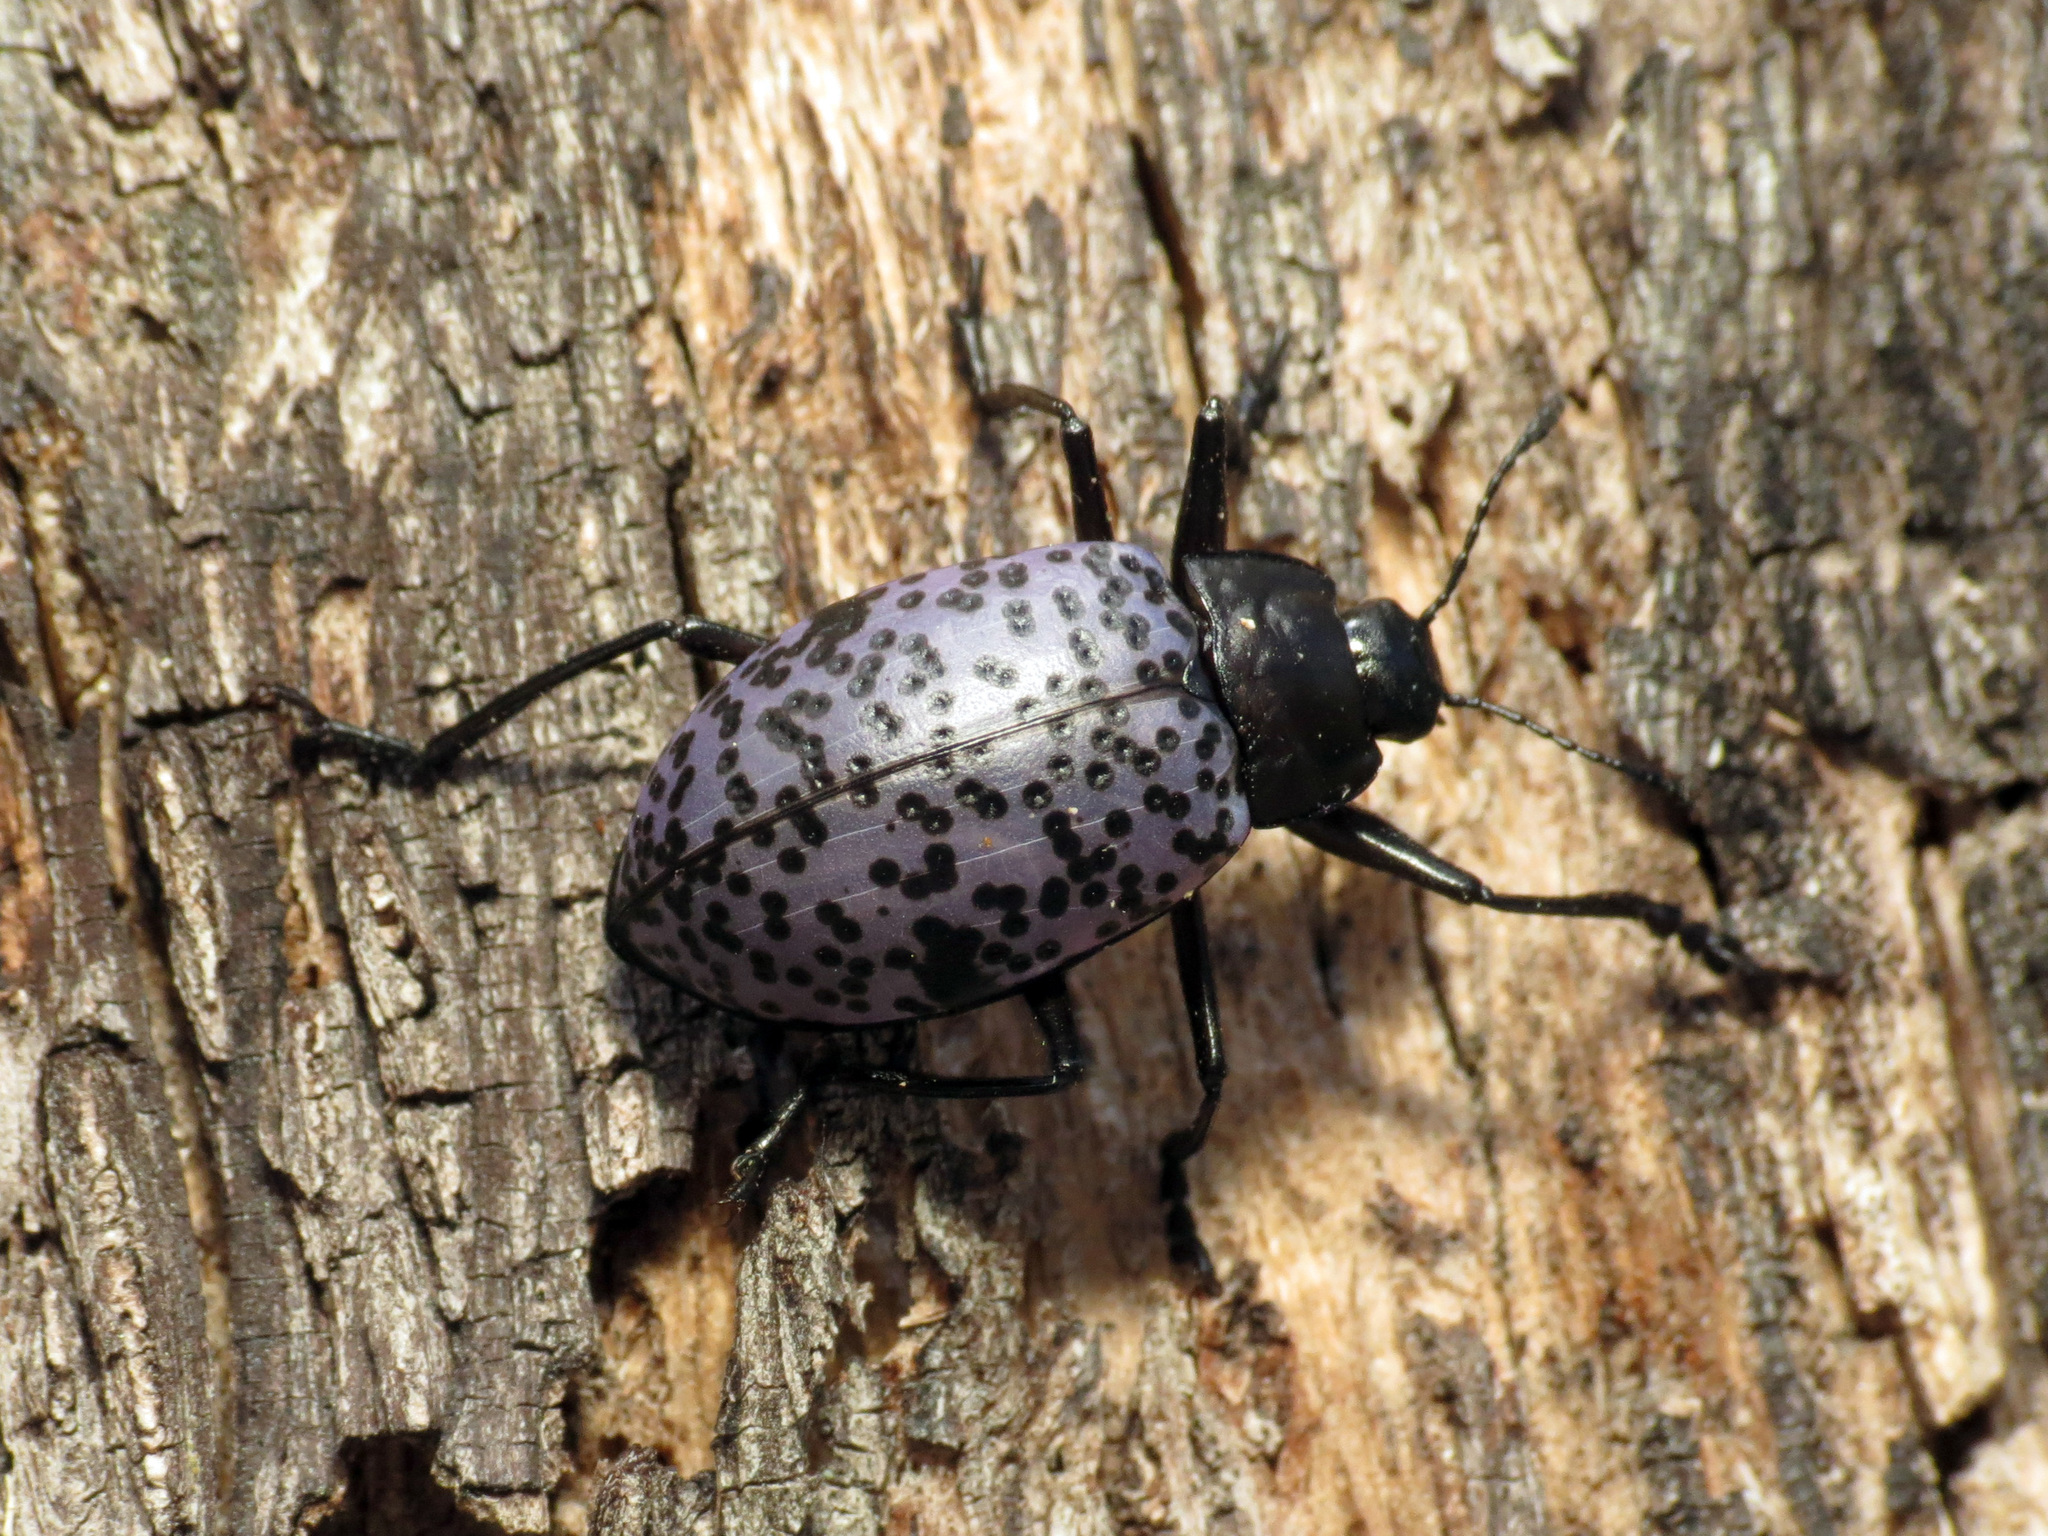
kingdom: Animalia
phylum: Arthropoda
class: Insecta
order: Coleoptera
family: Erotylidae
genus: Gibbifer
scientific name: Gibbifer californicus
